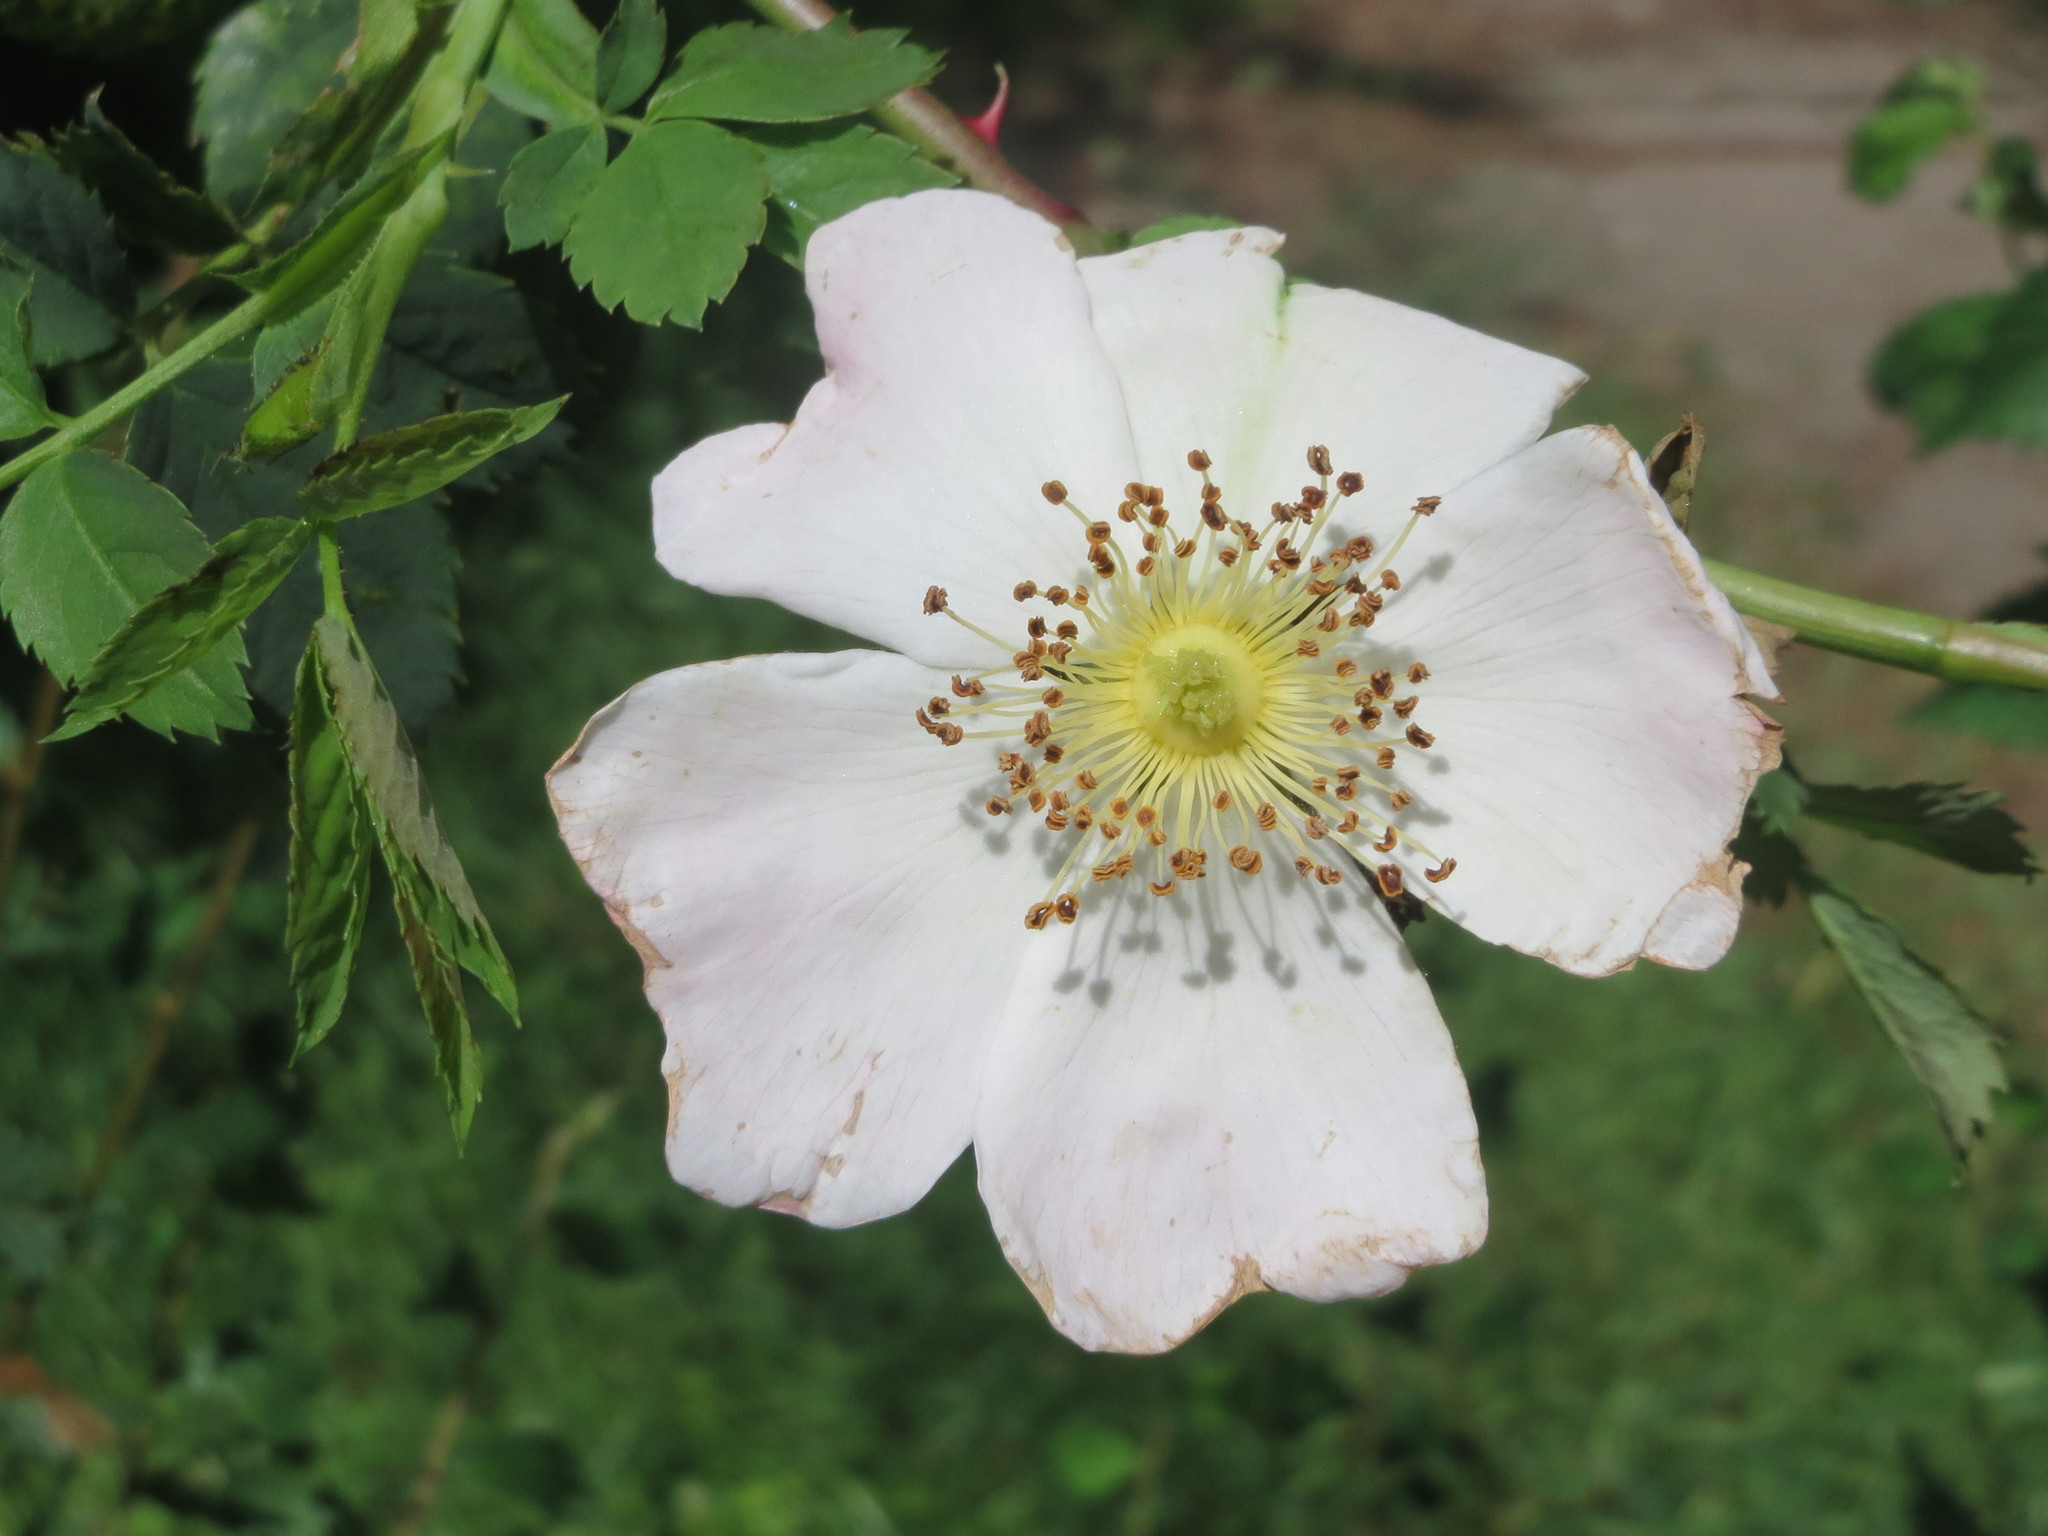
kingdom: Plantae
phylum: Tracheophyta
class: Magnoliopsida
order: Rosales
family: Rosaceae
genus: Rosa
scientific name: Rosa canina
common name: Dog rose
